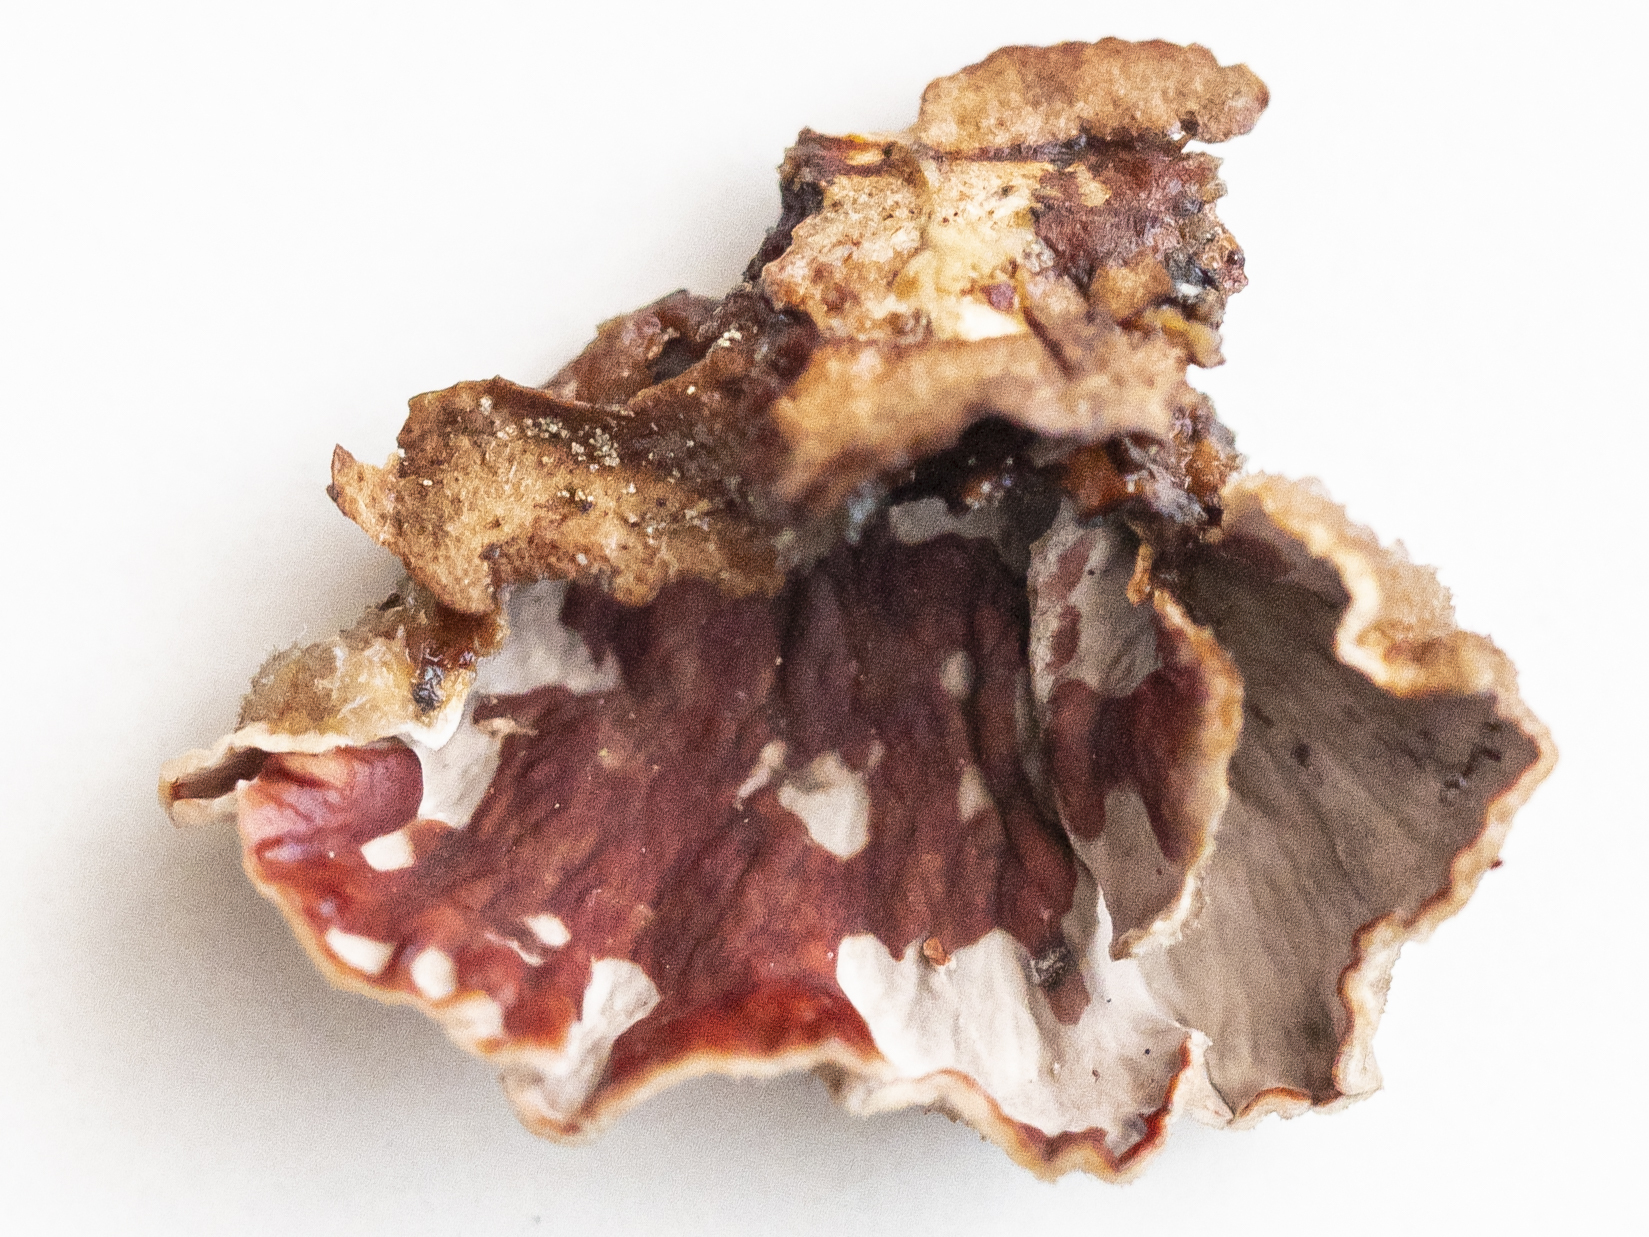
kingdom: Fungi
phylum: Basidiomycota
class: Agaricomycetes
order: Russulales
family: Stereaceae
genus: Stereum
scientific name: Stereum sanguinolentum
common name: Bleeding conifer crust
